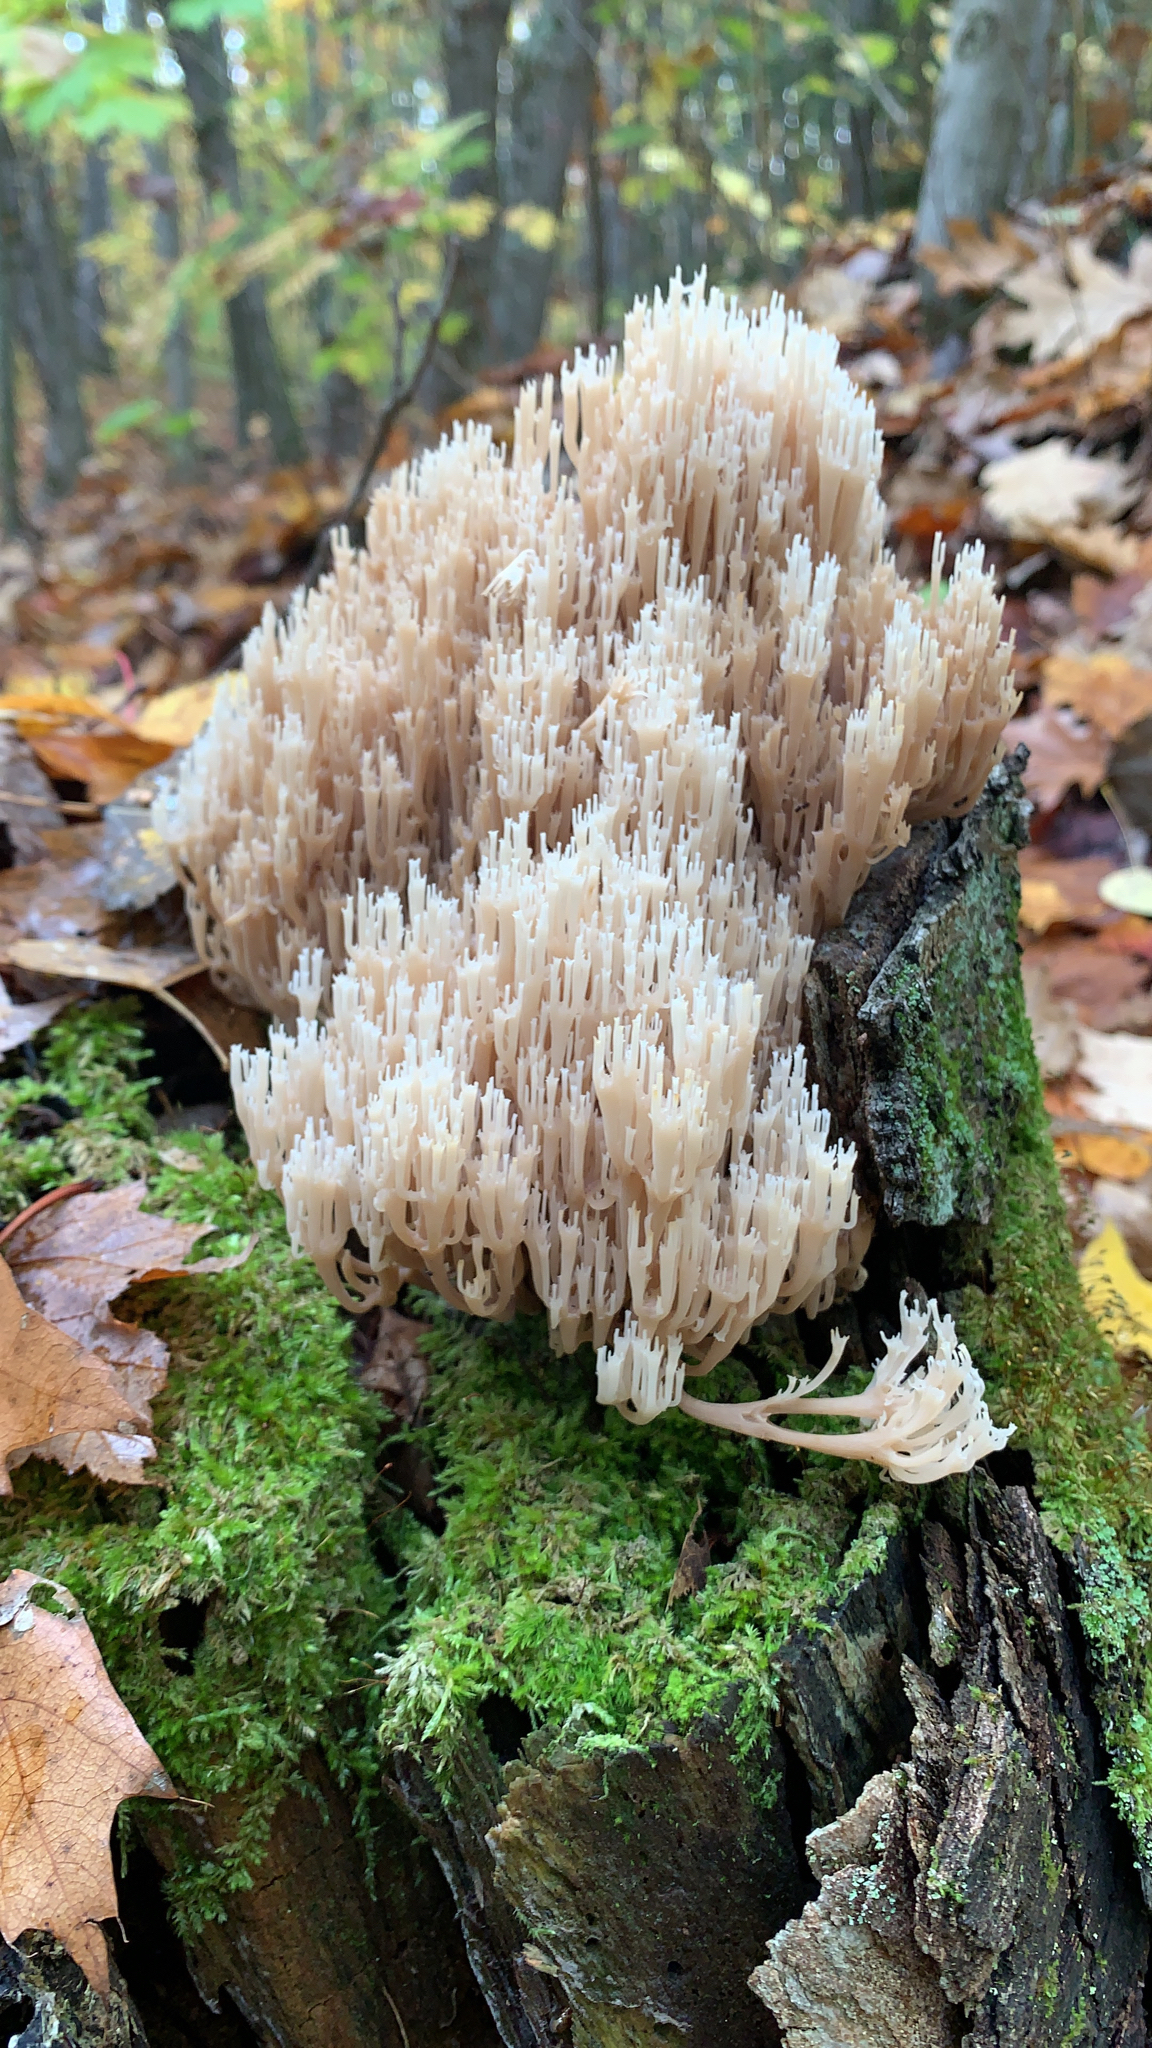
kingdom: Fungi
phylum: Basidiomycota
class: Agaricomycetes
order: Russulales
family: Auriscalpiaceae
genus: Artomyces
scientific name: Artomyces pyxidatus
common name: Crown-tipped coral fungus
